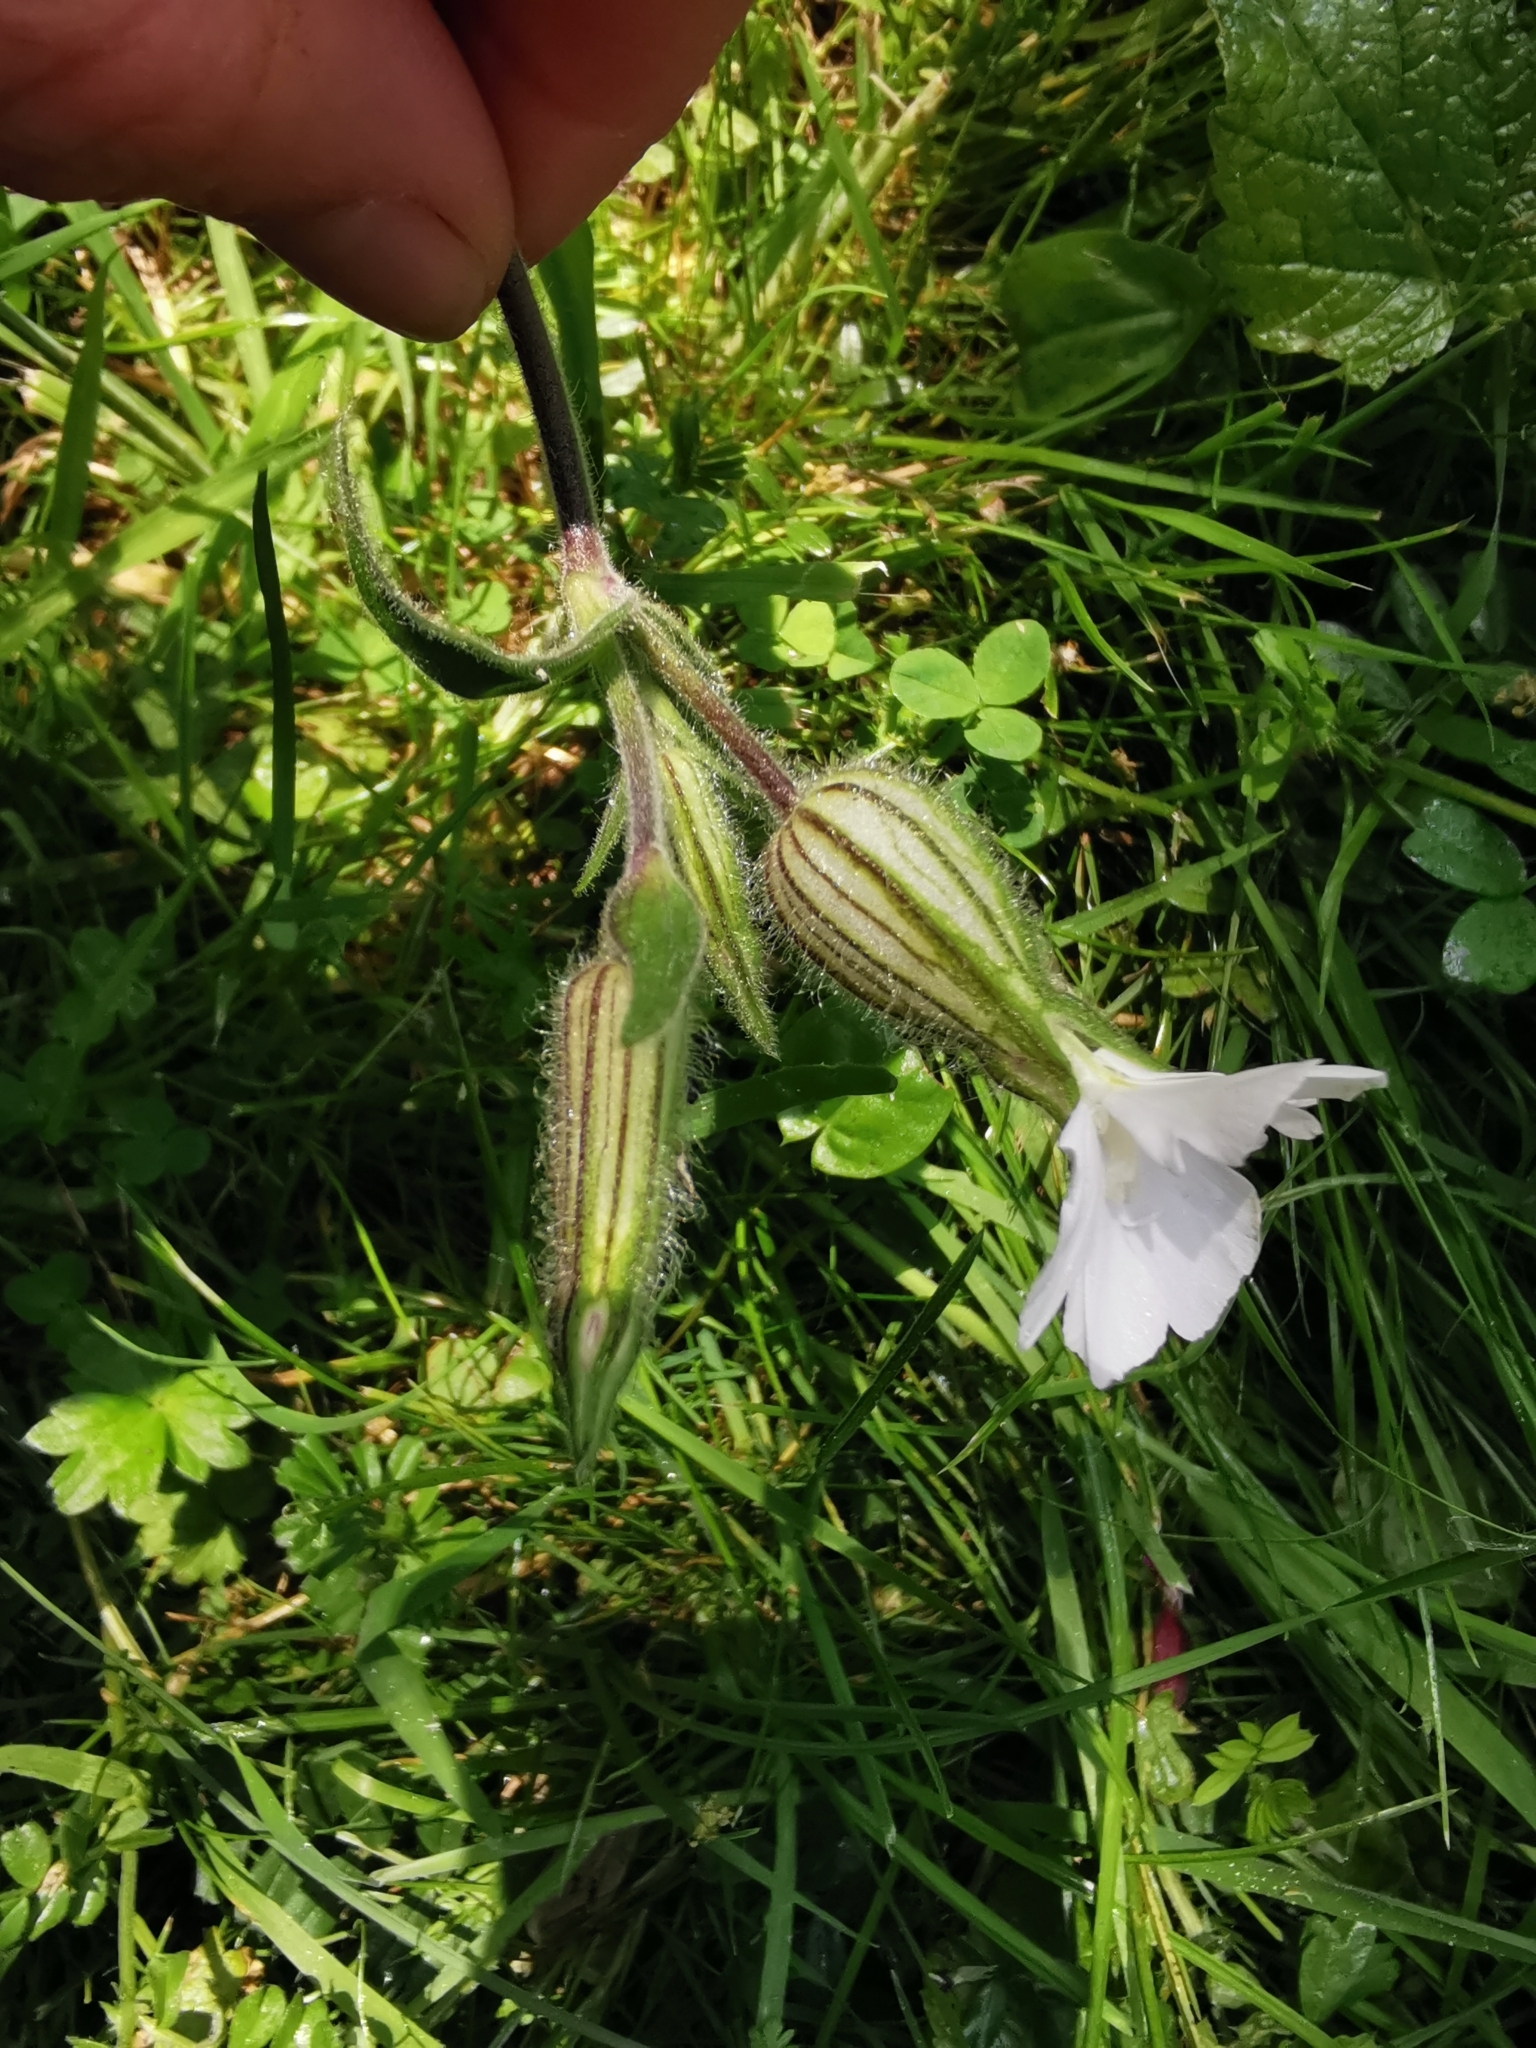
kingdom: Plantae
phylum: Tracheophyta
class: Magnoliopsida
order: Caryophyllales
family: Caryophyllaceae
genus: Silene
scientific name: Silene latifolia
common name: White campion
